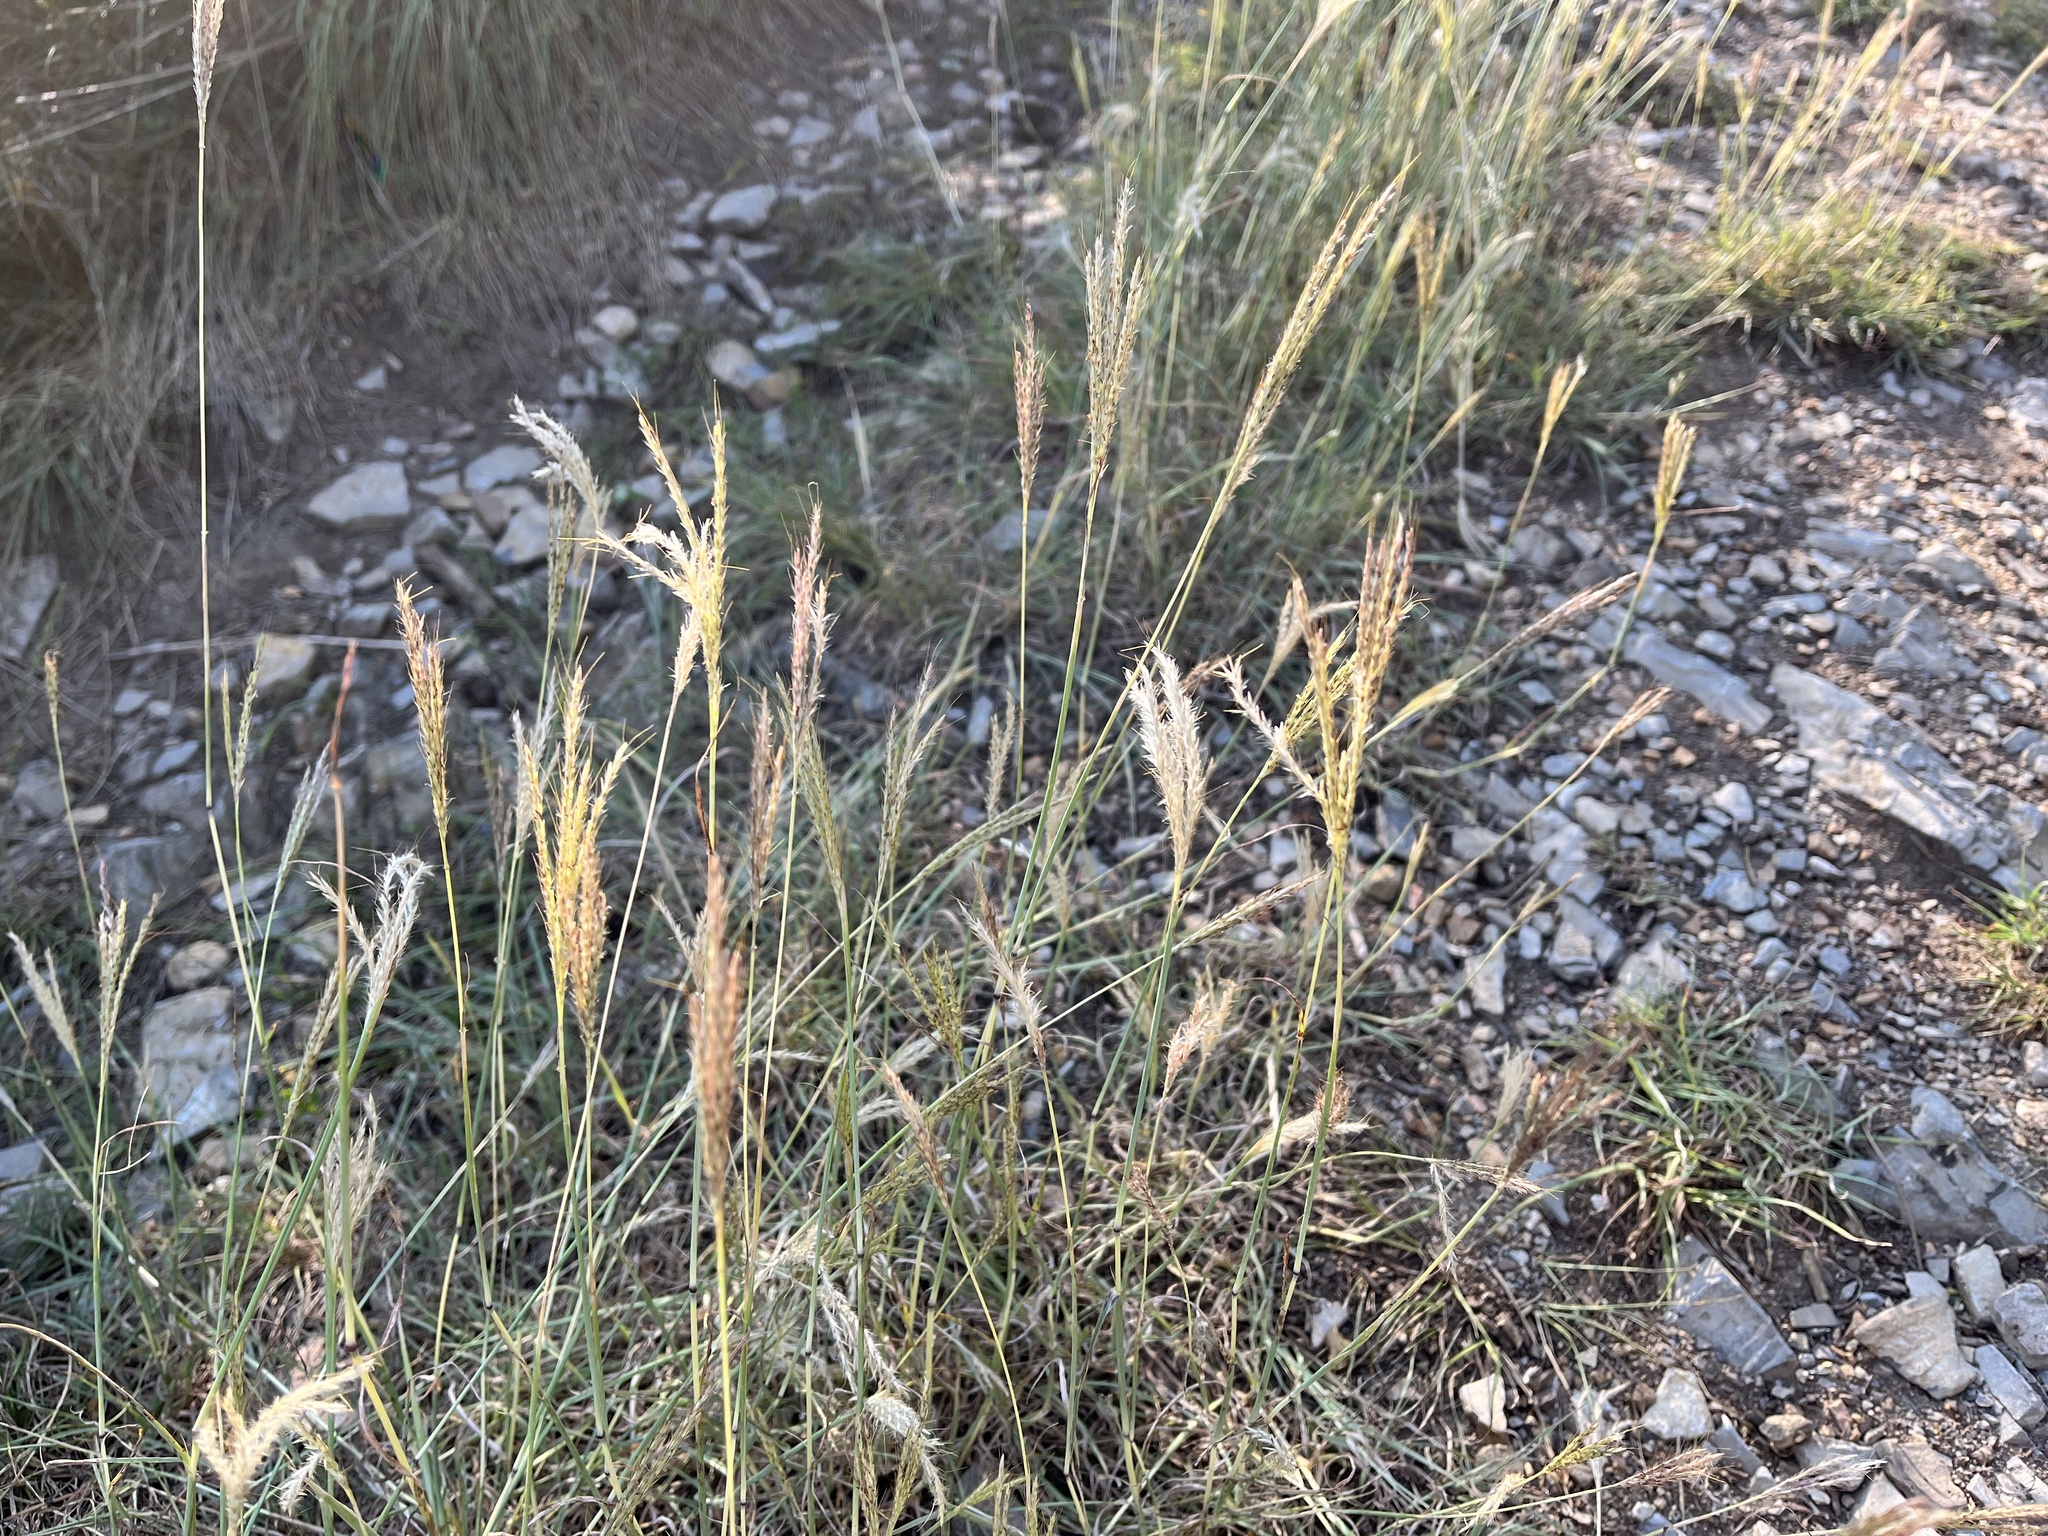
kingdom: Plantae
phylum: Tracheophyta
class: Liliopsida
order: Poales
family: Poaceae
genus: Bothriochloa
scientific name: Bothriochloa ischaemum
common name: Yellow bluestem
